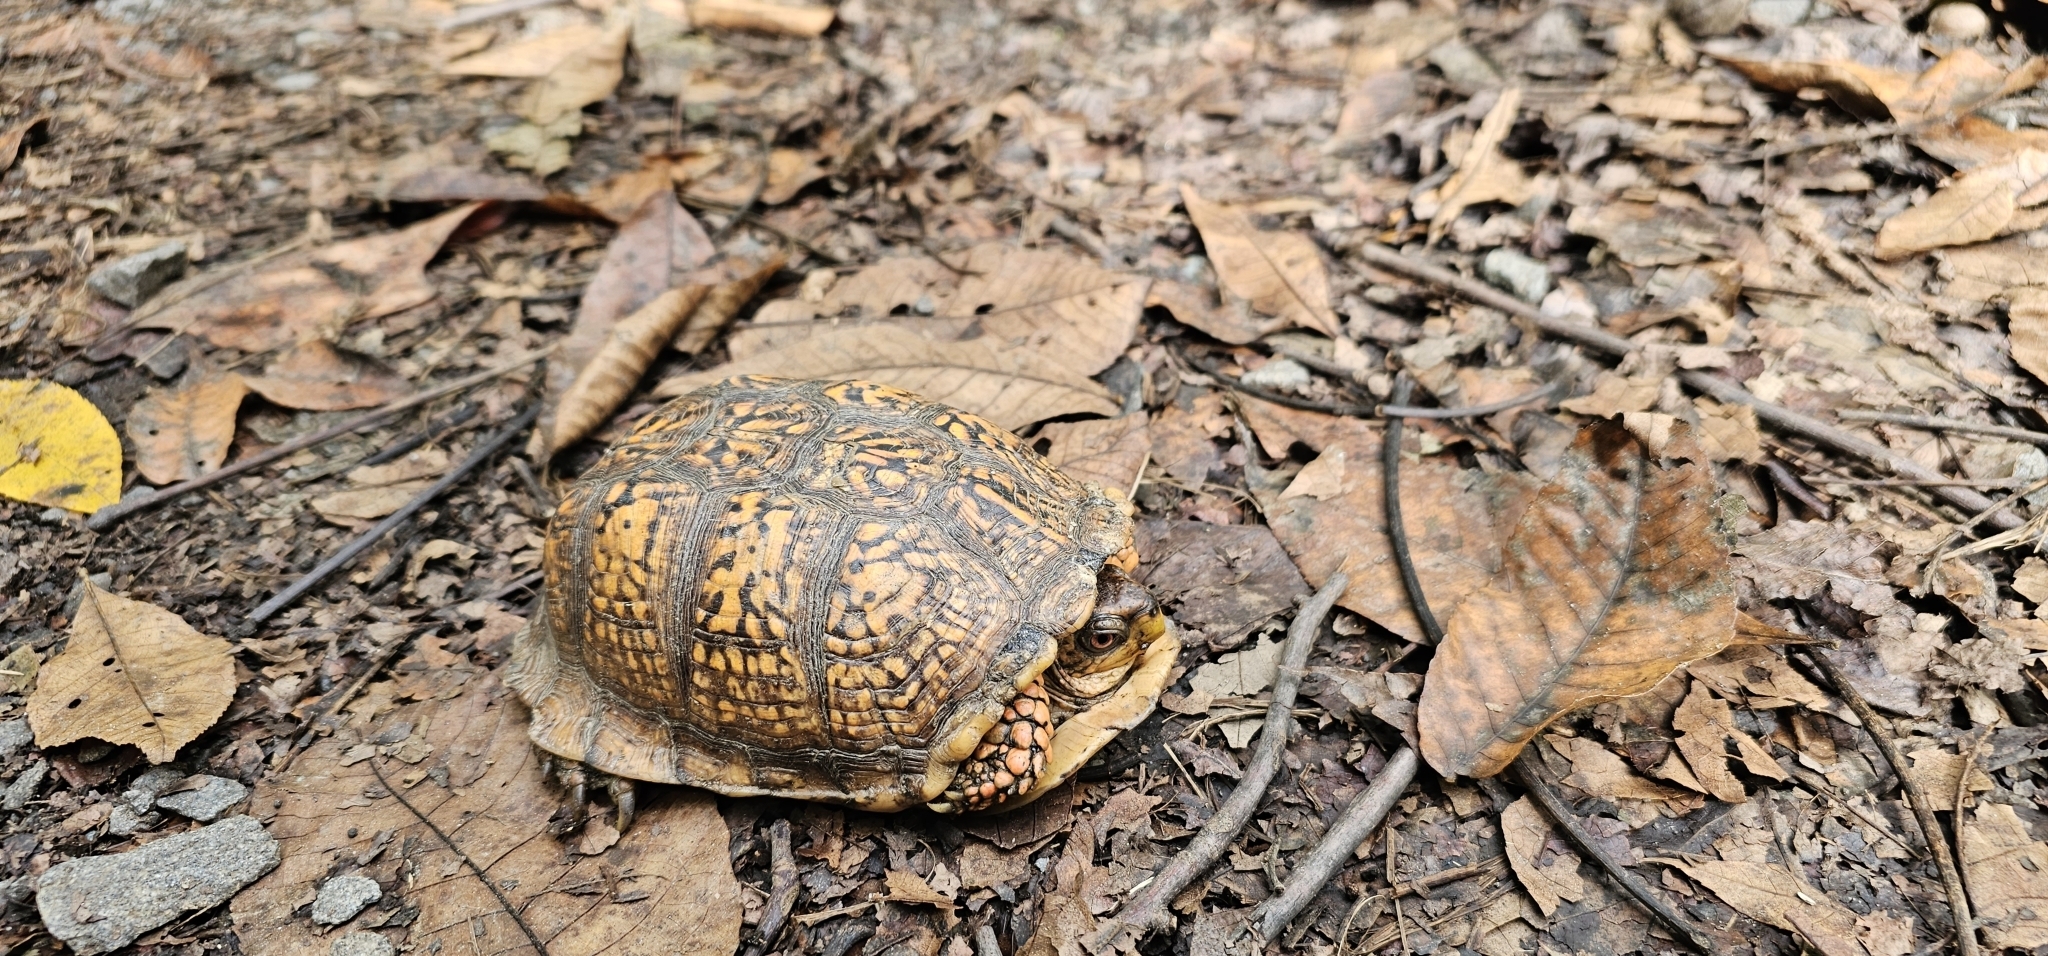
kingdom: Animalia
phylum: Chordata
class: Testudines
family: Emydidae
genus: Terrapene
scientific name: Terrapene carolina
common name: Common box turtle
